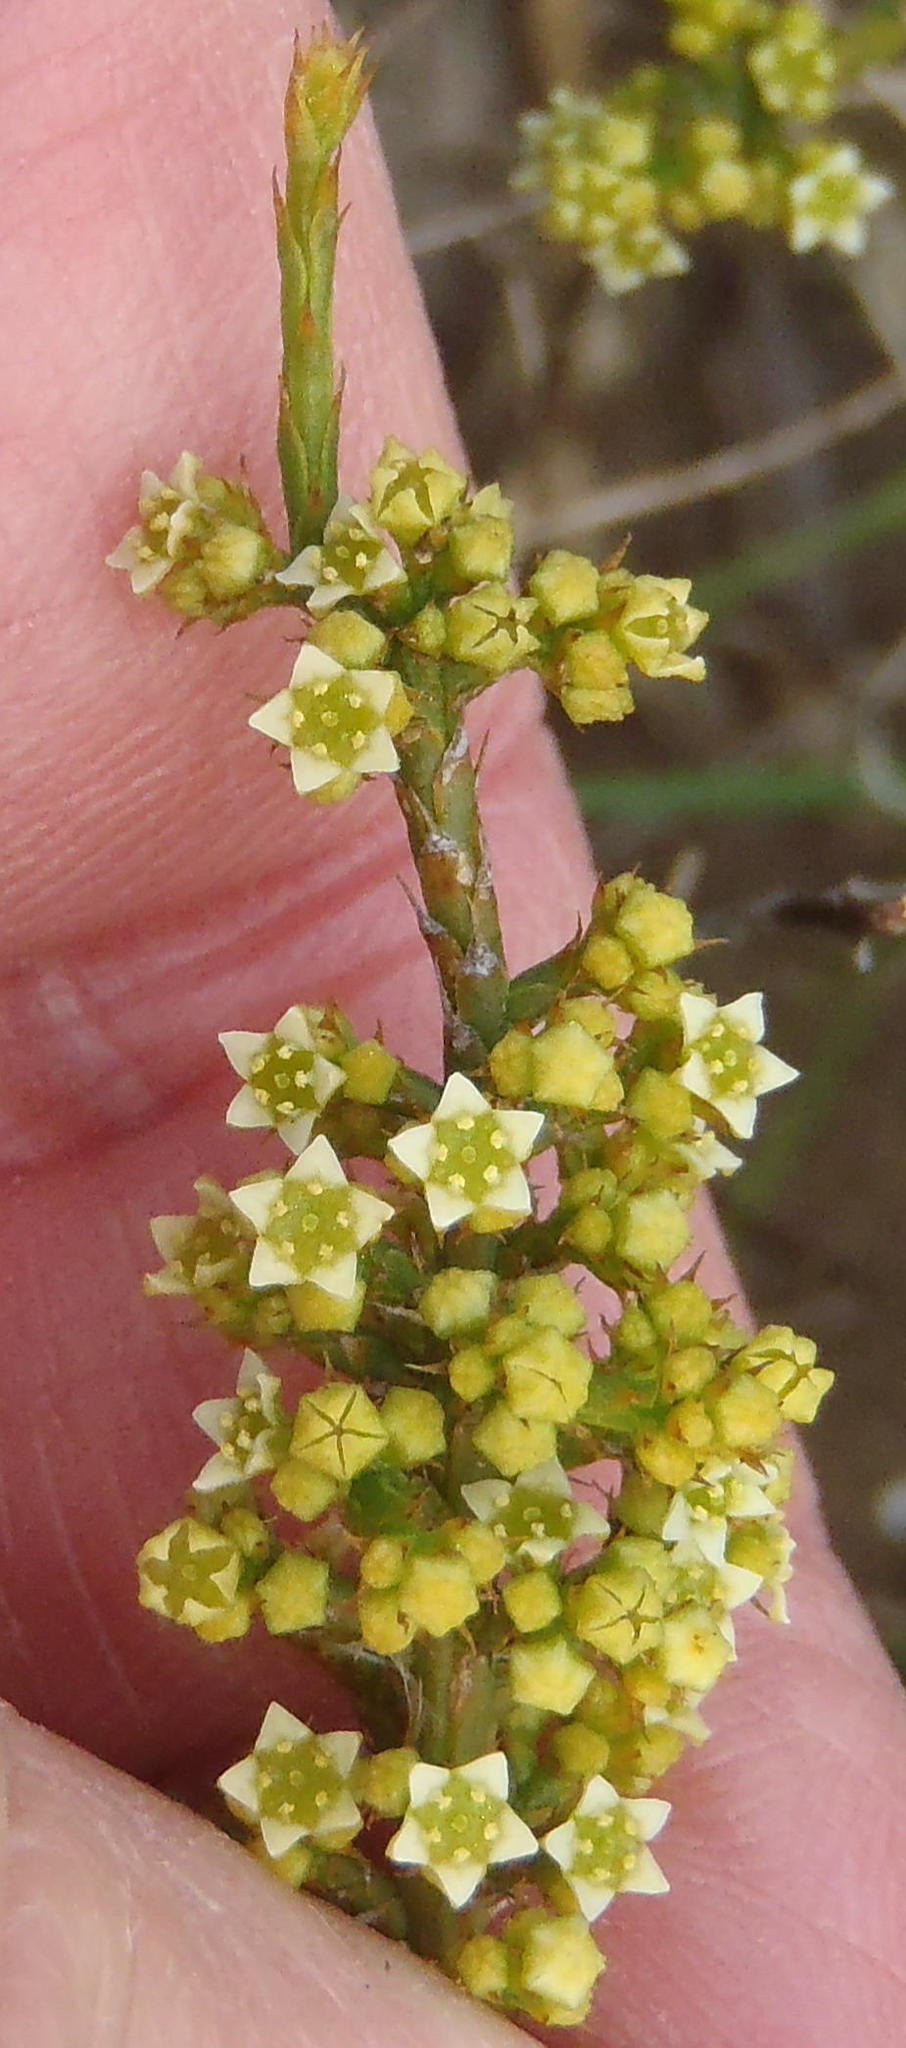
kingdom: Plantae
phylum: Tracheophyta
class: Magnoliopsida
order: Santalales
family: Thesiaceae
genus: Thesium
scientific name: Thesium stirtonii
